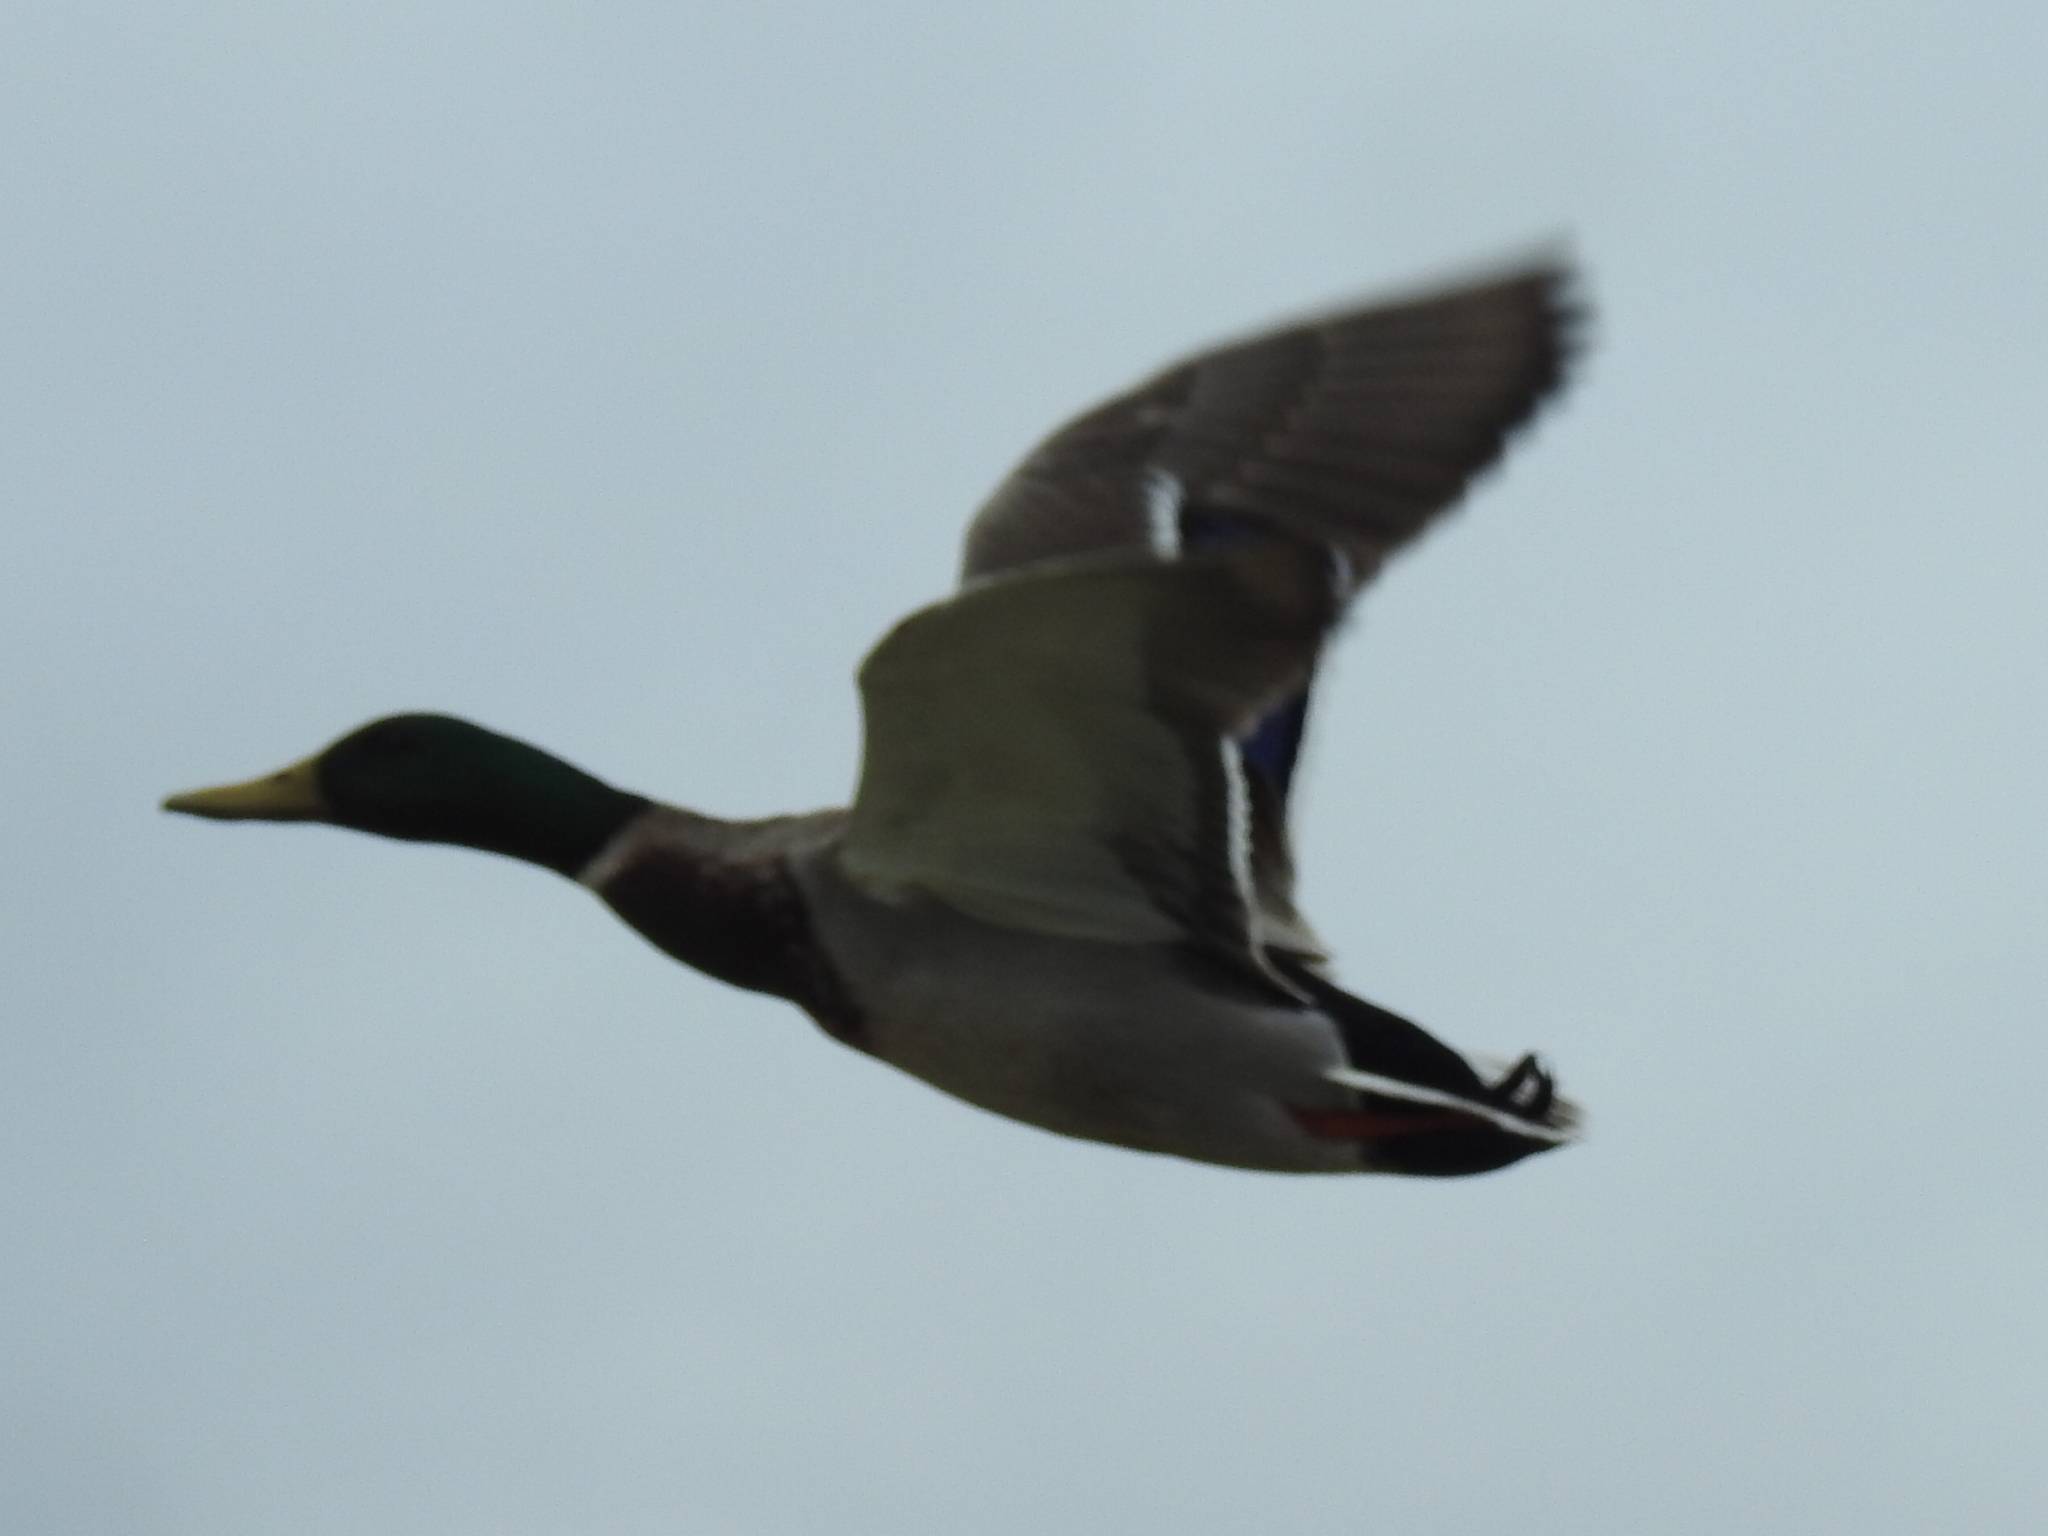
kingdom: Animalia
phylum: Chordata
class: Aves
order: Anseriformes
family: Anatidae
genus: Anas
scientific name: Anas platyrhynchos
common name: Mallard
